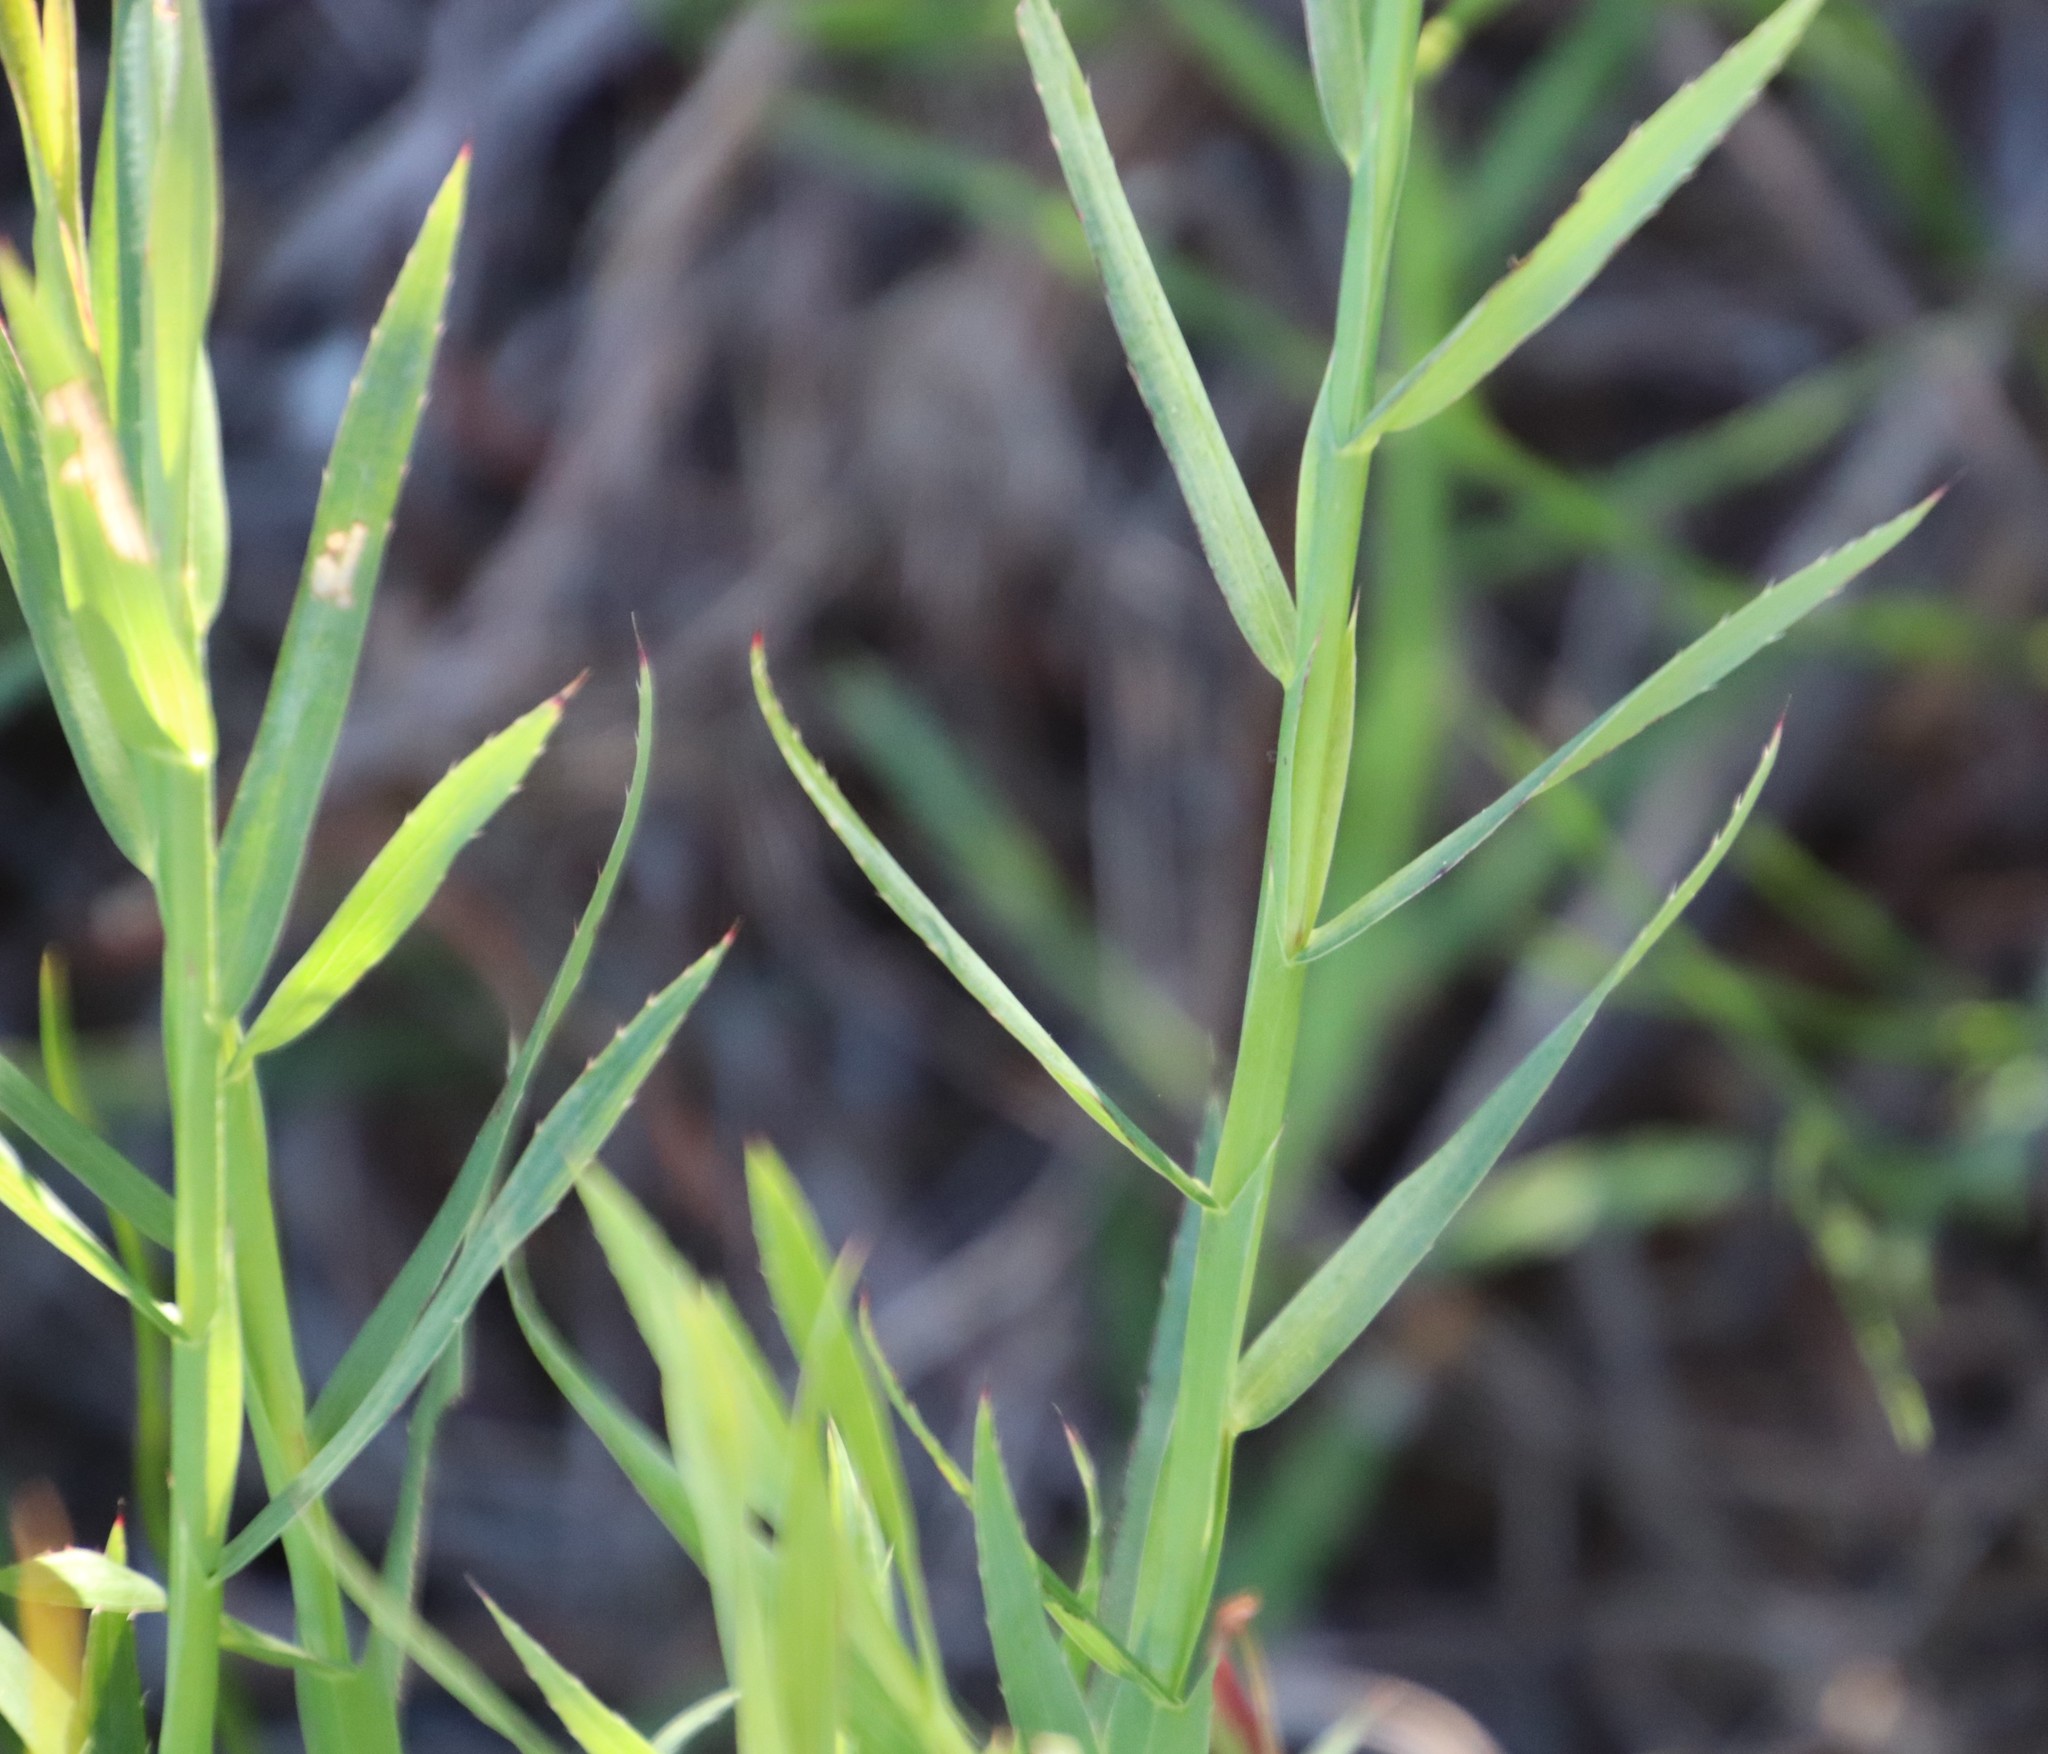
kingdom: Plantae
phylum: Tracheophyta
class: Magnoliopsida
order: Rosales
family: Rosaceae
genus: Cliffortia
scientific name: Cliffortia graminea
